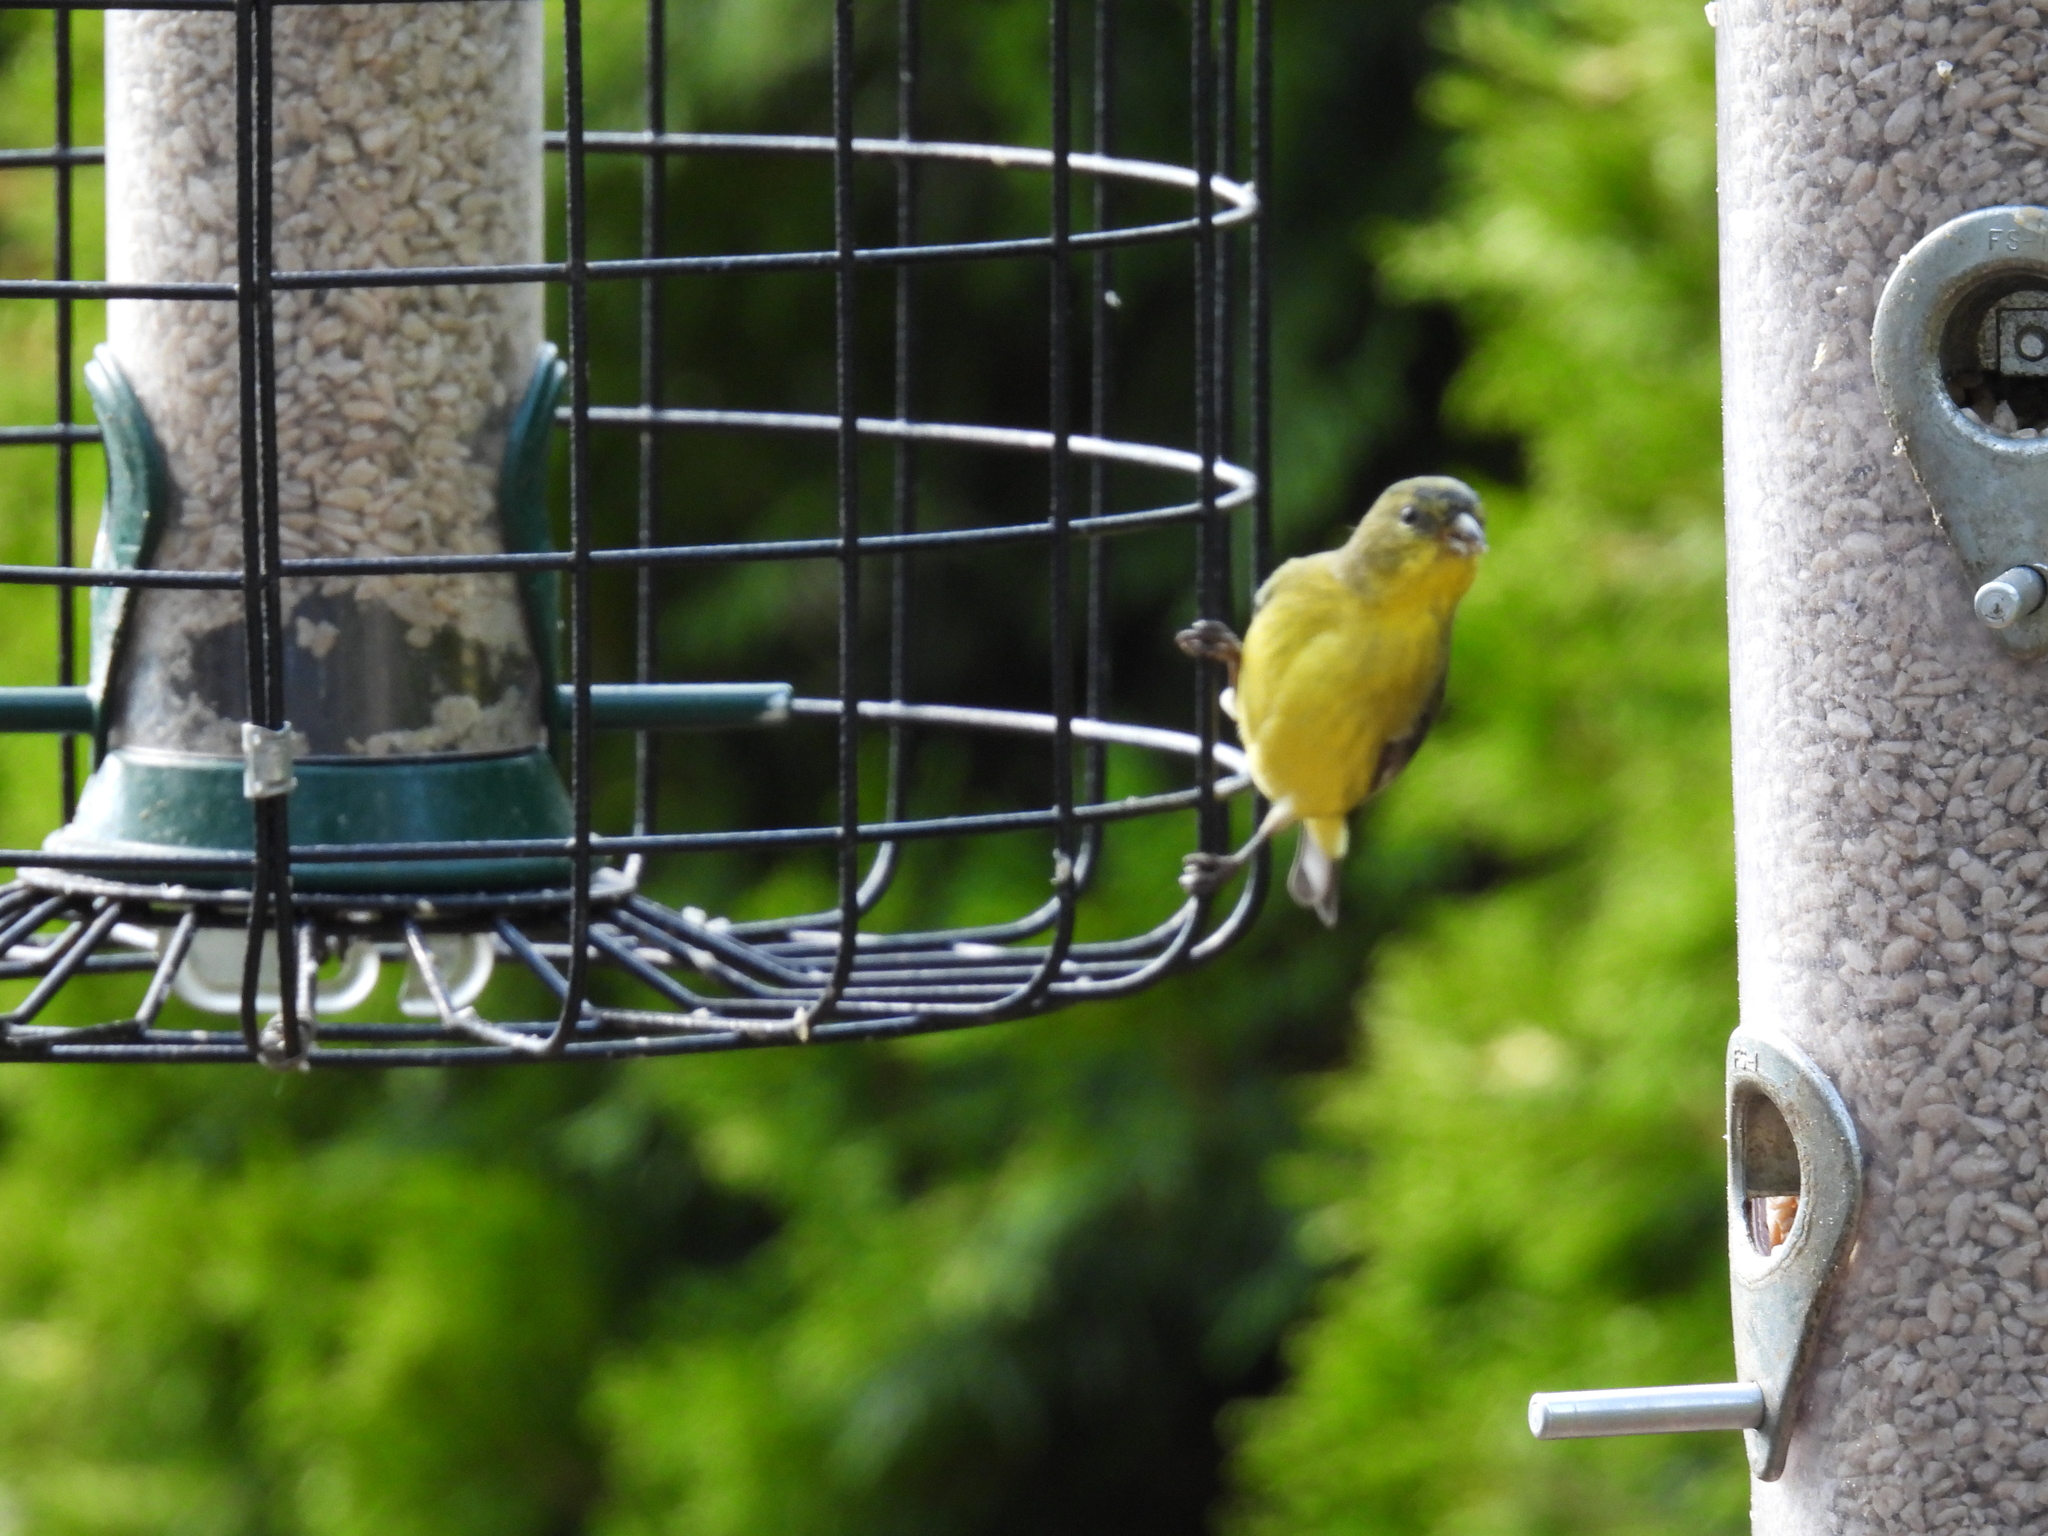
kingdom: Animalia
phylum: Chordata
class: Aves
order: Passeriformes
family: Fringillidae
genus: Spinus
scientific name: Spinus psaltria
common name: Lesser goldfinch
